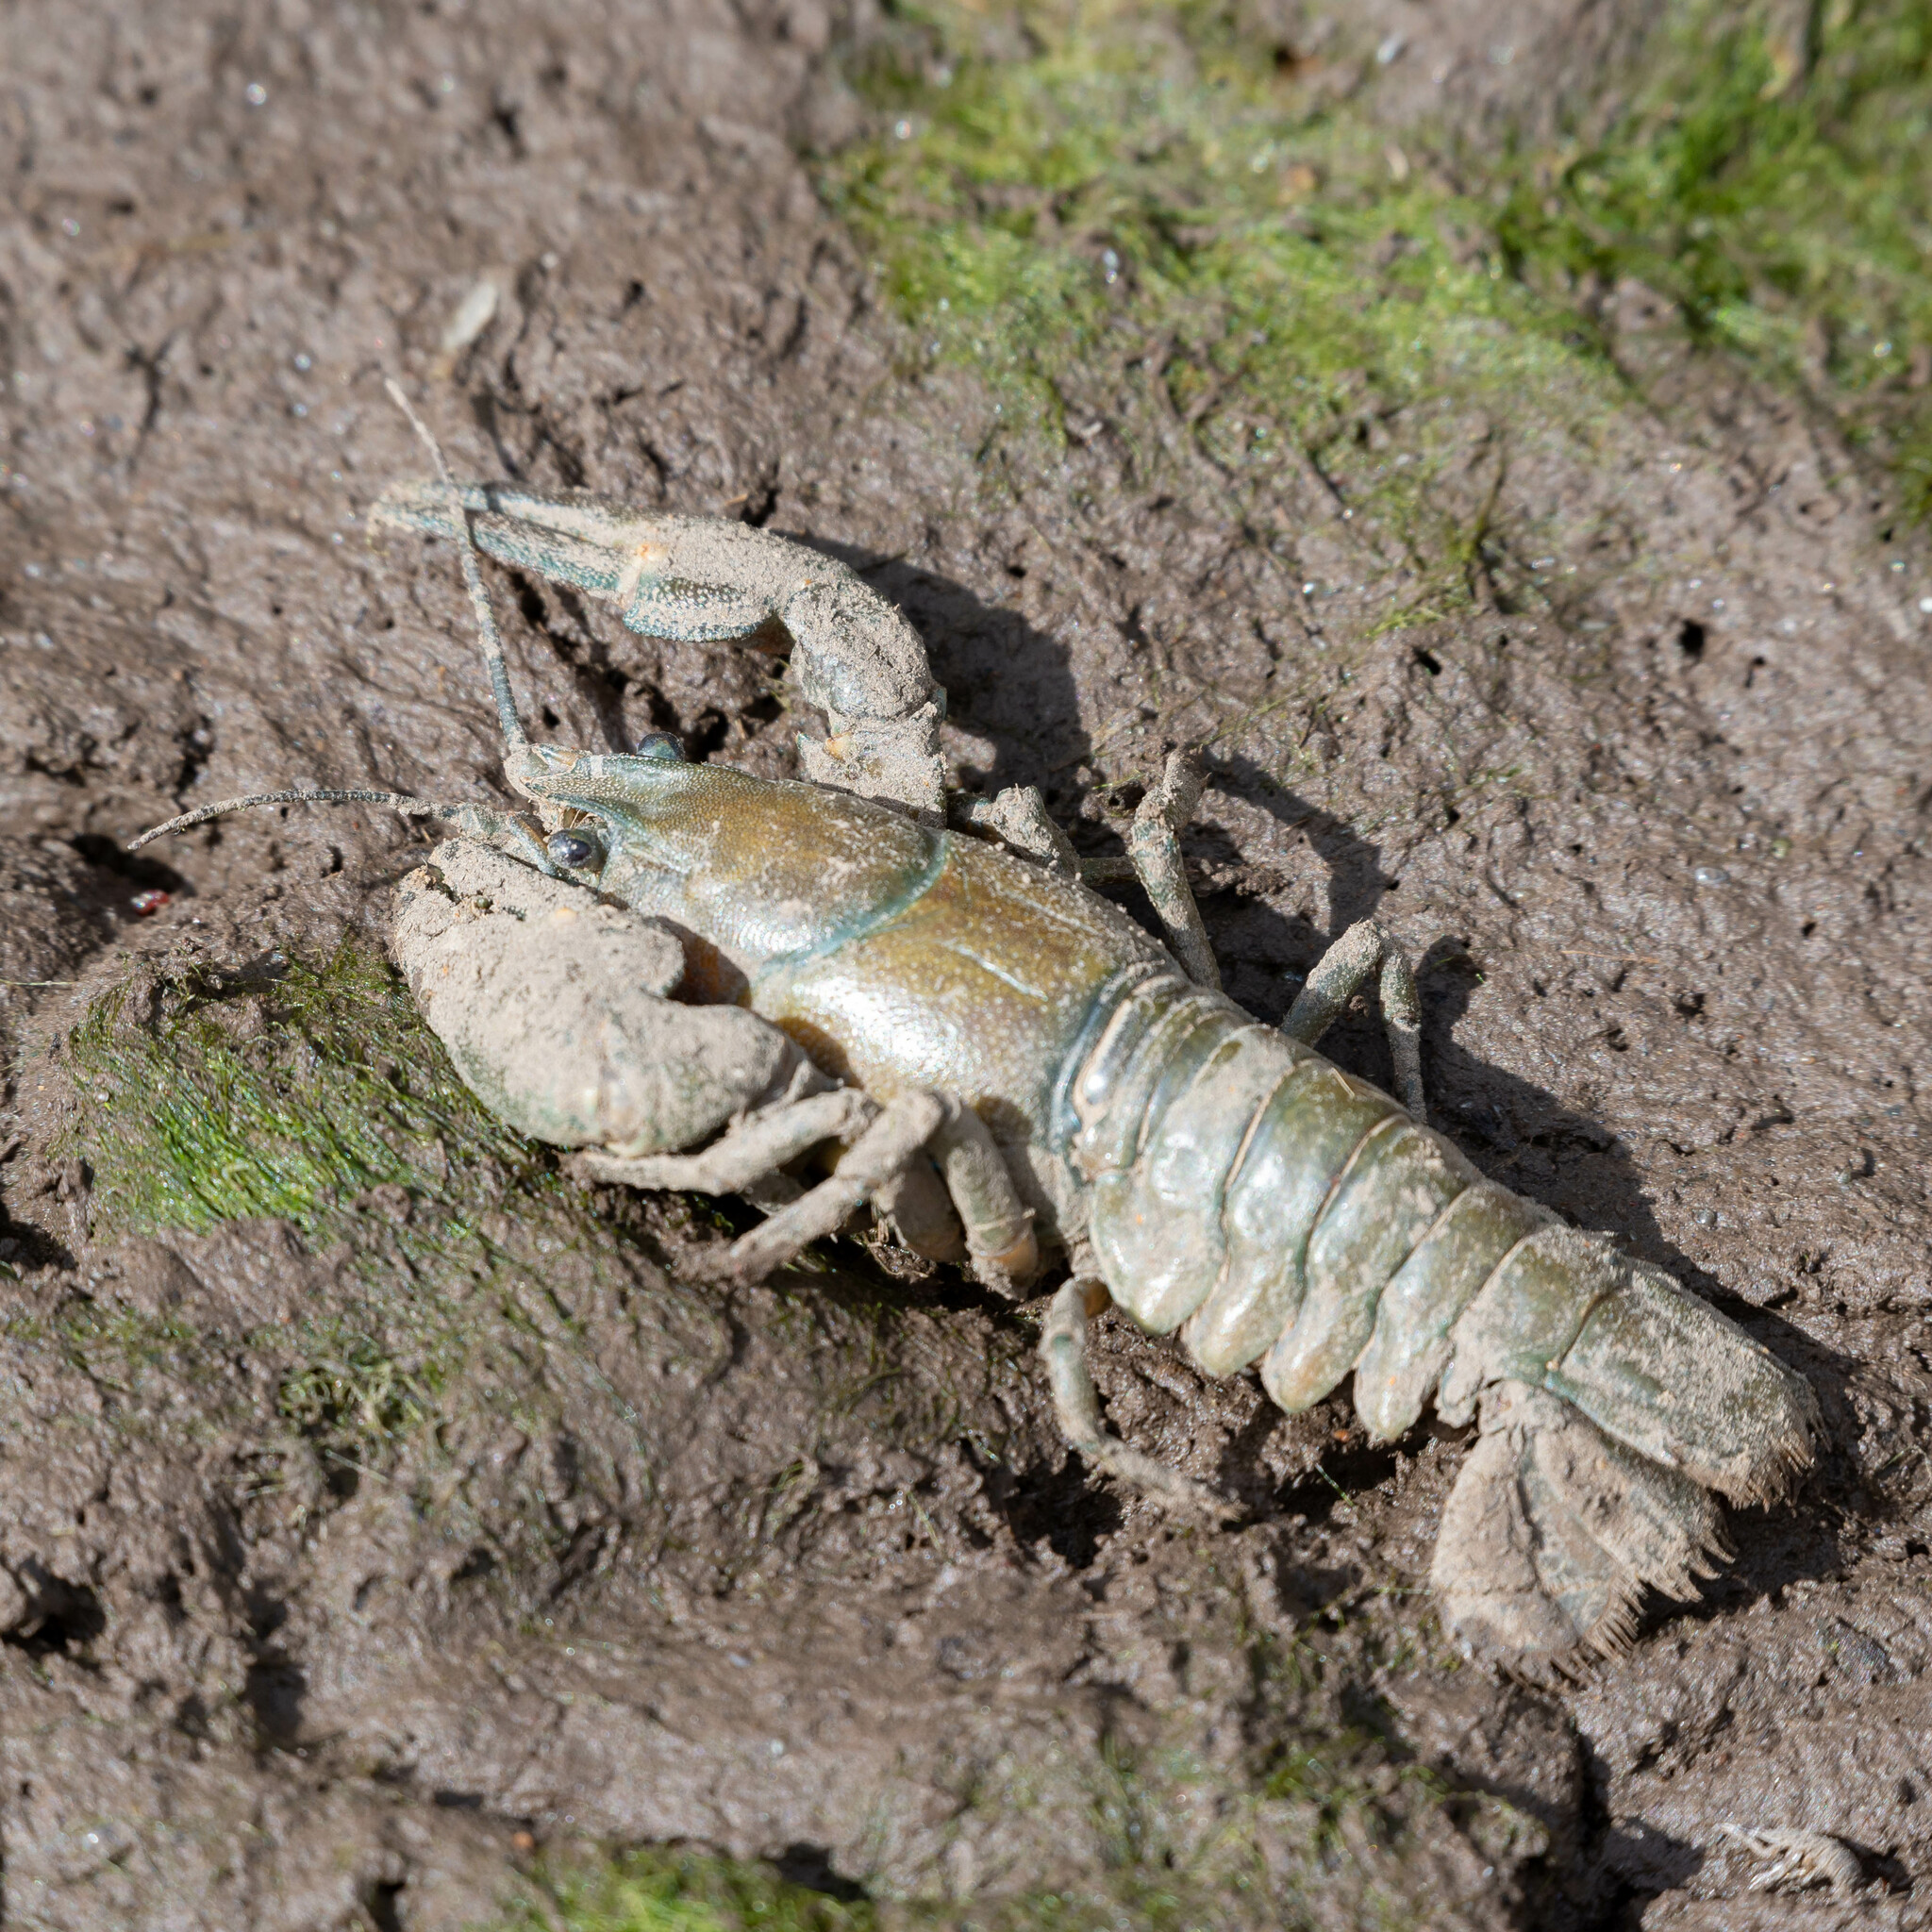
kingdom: Animalia
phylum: Arthropoda
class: Malacostraca
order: Decapoda
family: Astacidae
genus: Pacifastacus
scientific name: Pacifastacus leniusculus
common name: Signal crayfish
